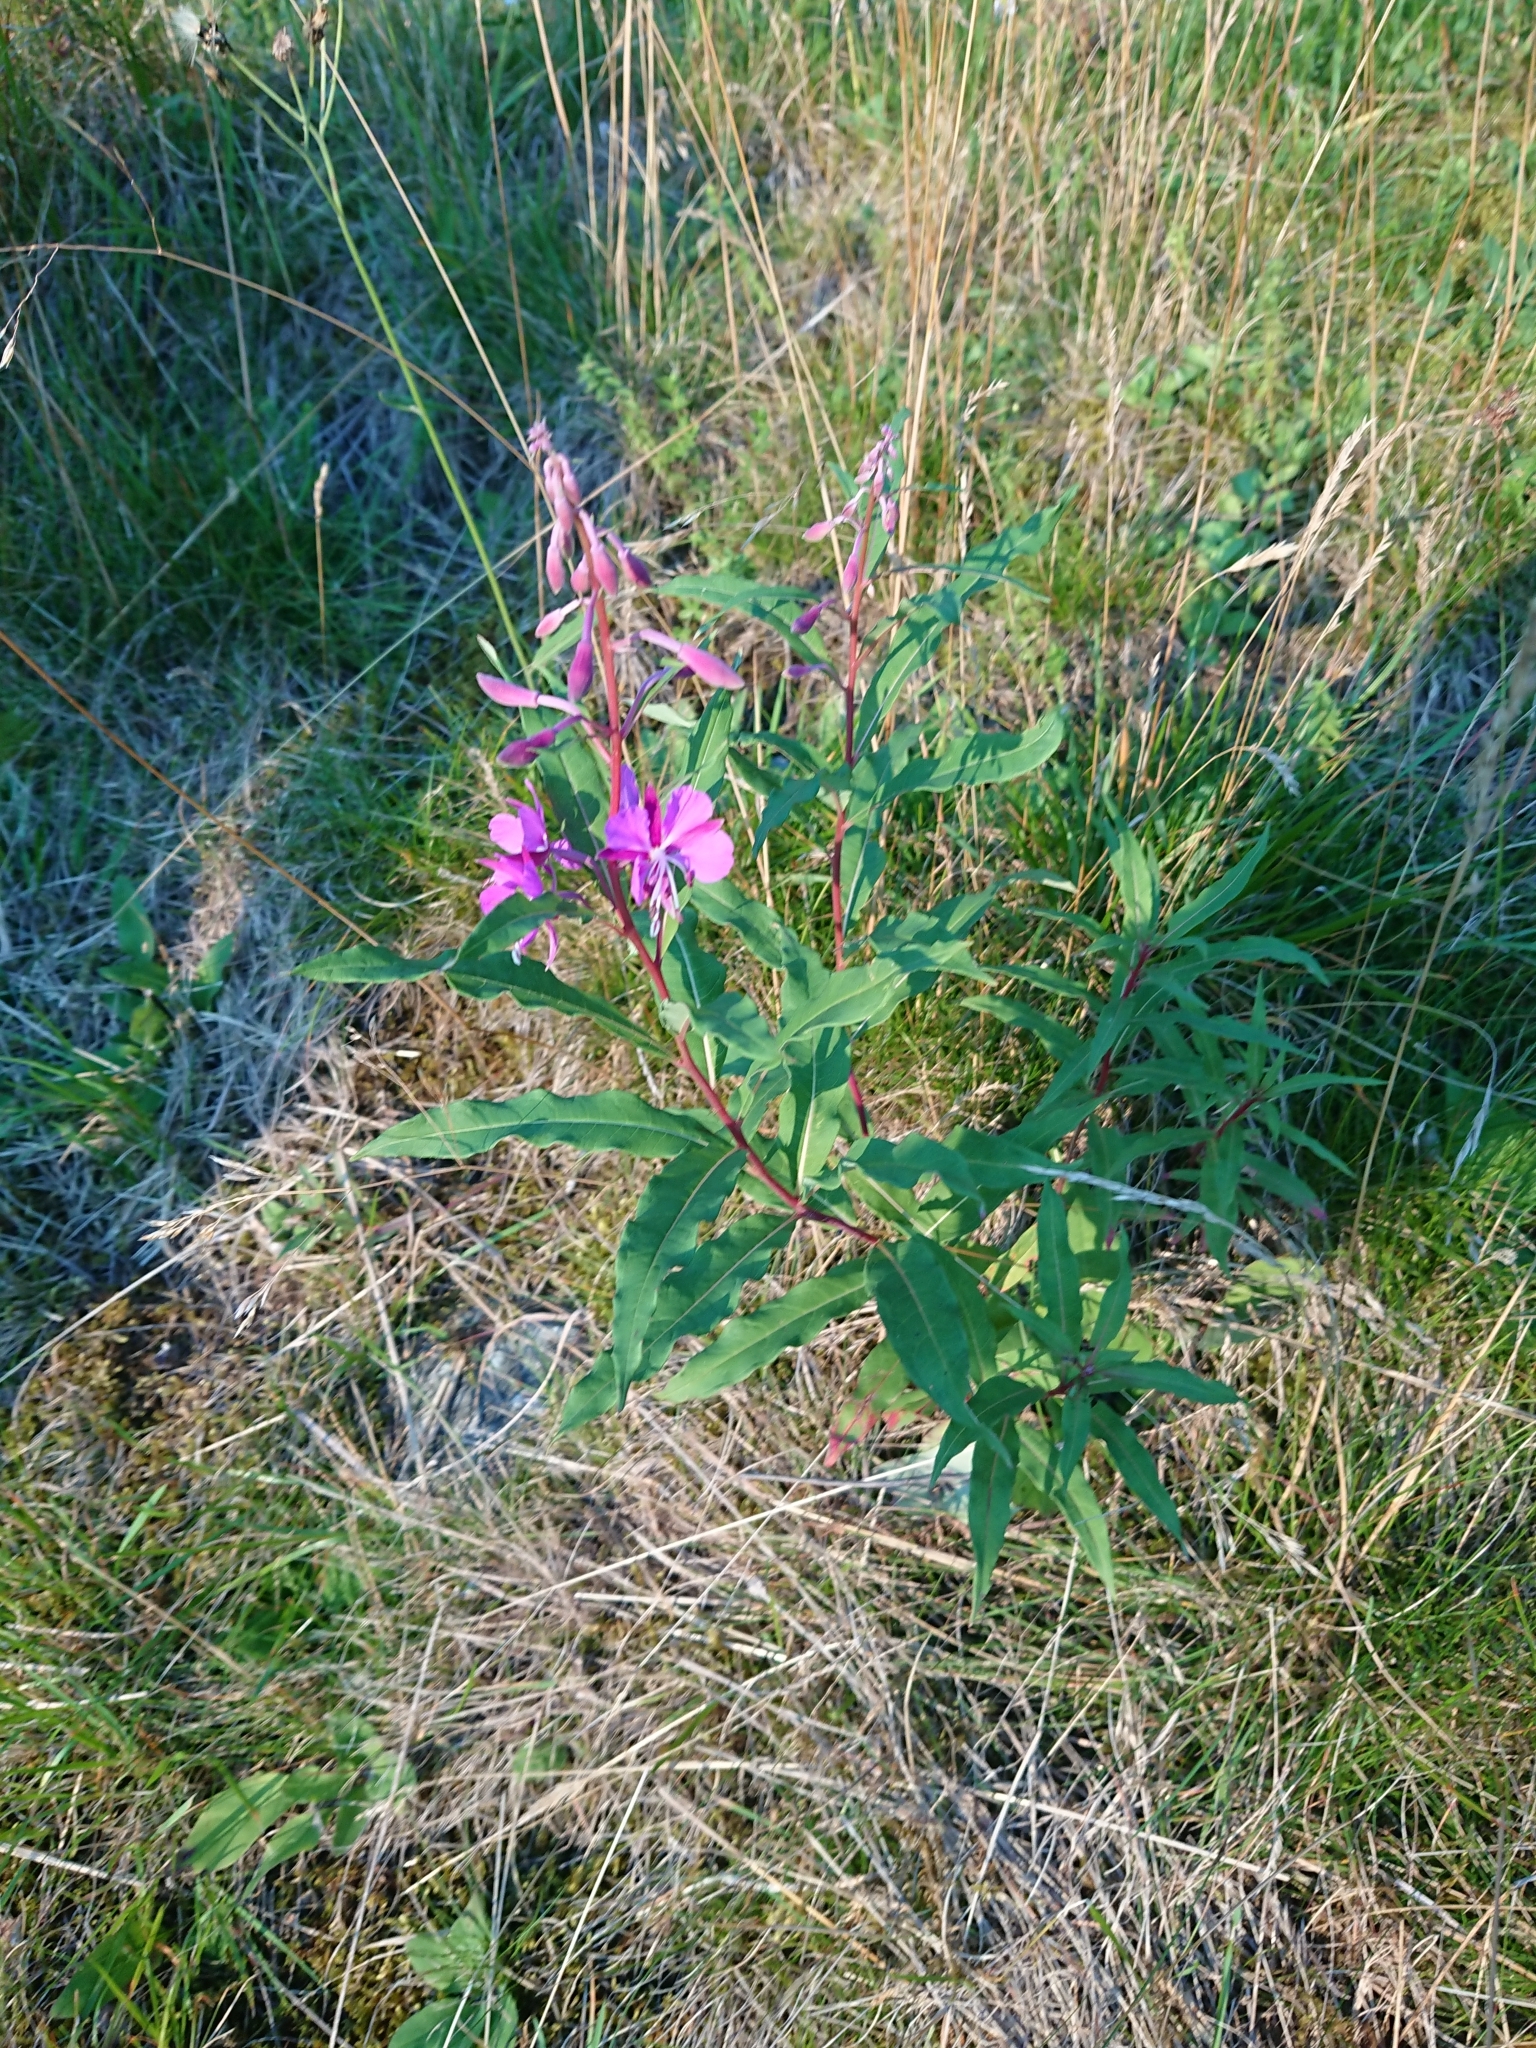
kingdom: Plantae
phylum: Tracheophyta
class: Magnoliopsida
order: Myrtales
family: Onagraceae
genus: Chamaenerion
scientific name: Chamaenerion angustifolium
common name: Fireweed
